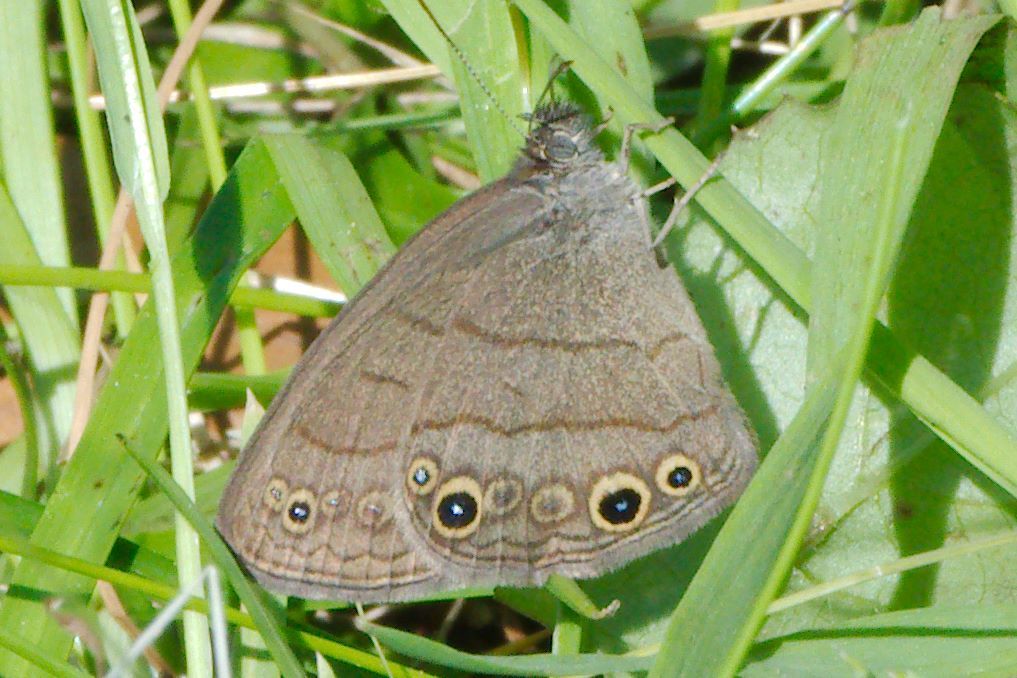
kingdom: Animalia
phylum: Arthropoda
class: Insecta
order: Lepidoptera
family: Nymphalidae
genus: Hermeuptychia
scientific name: Hermeuptychia hermes
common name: Hermes satyr
